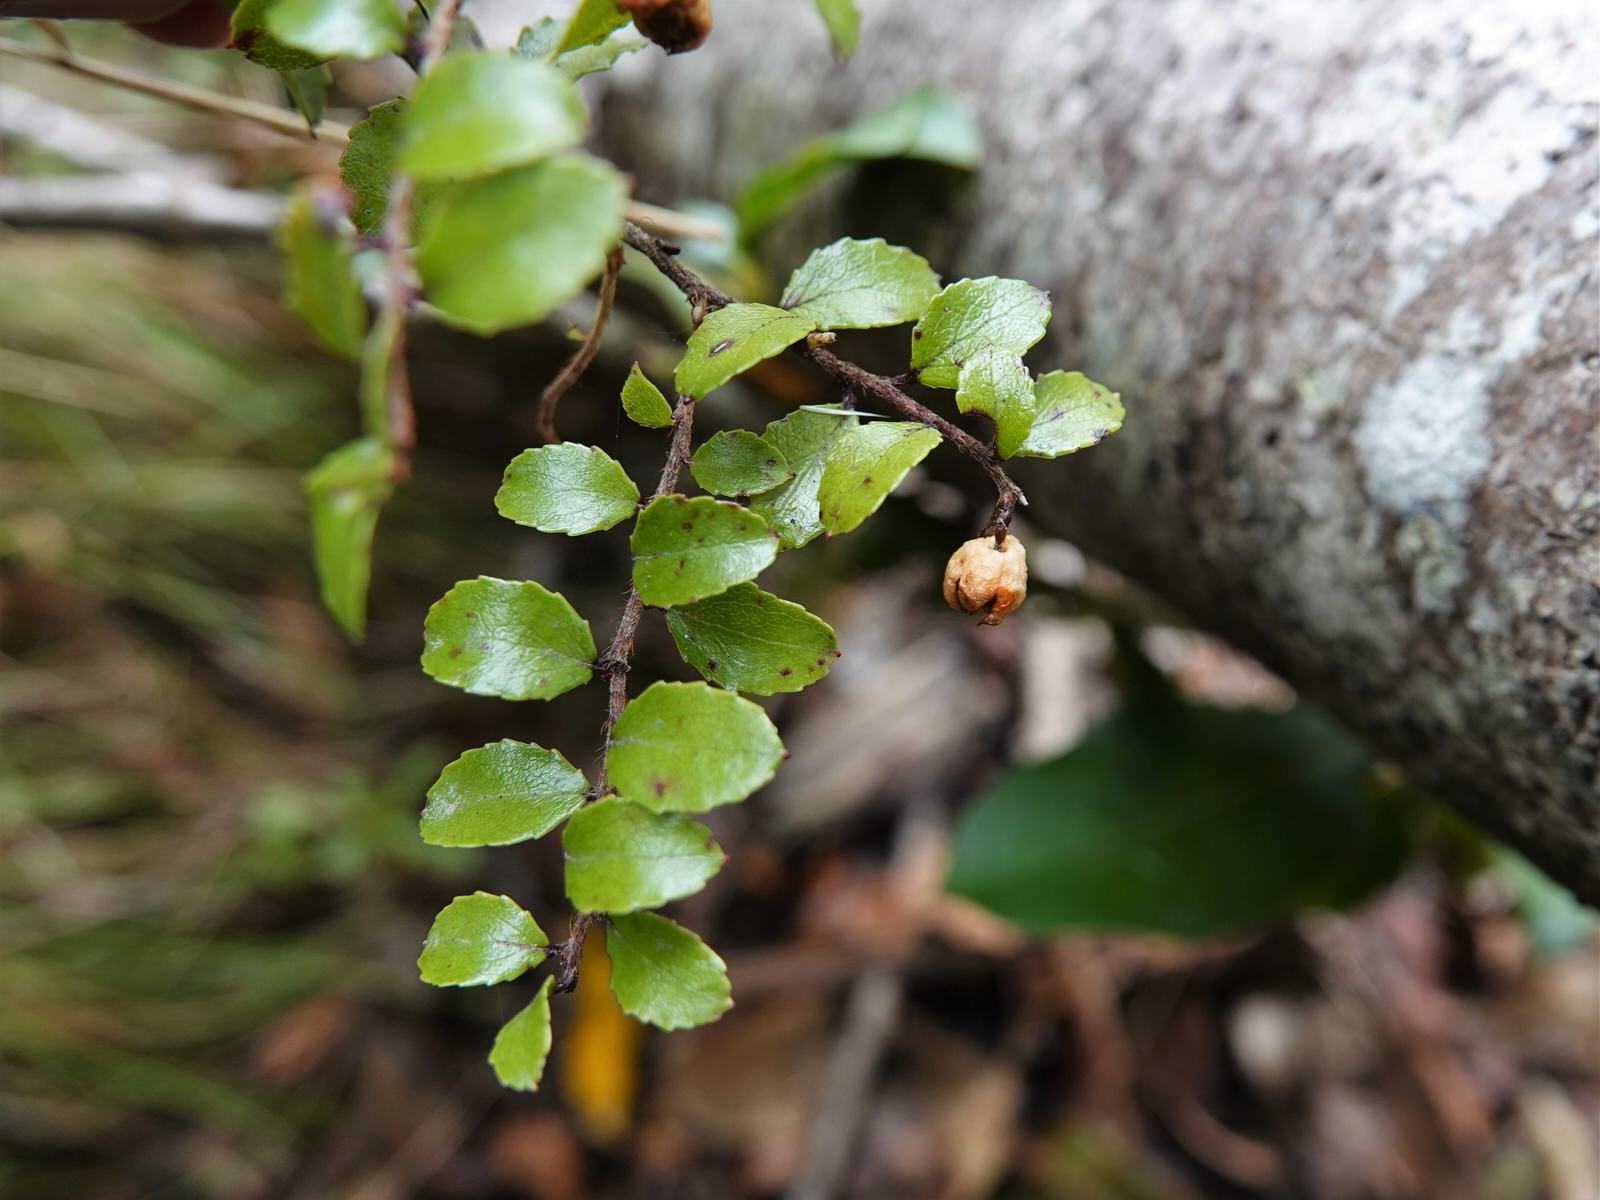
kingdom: Plantae
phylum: Tracheophyta
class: Magnoliopsida
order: Ericales
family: Ericaceae
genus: Gaultheria
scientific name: Gaultheria antipoda
